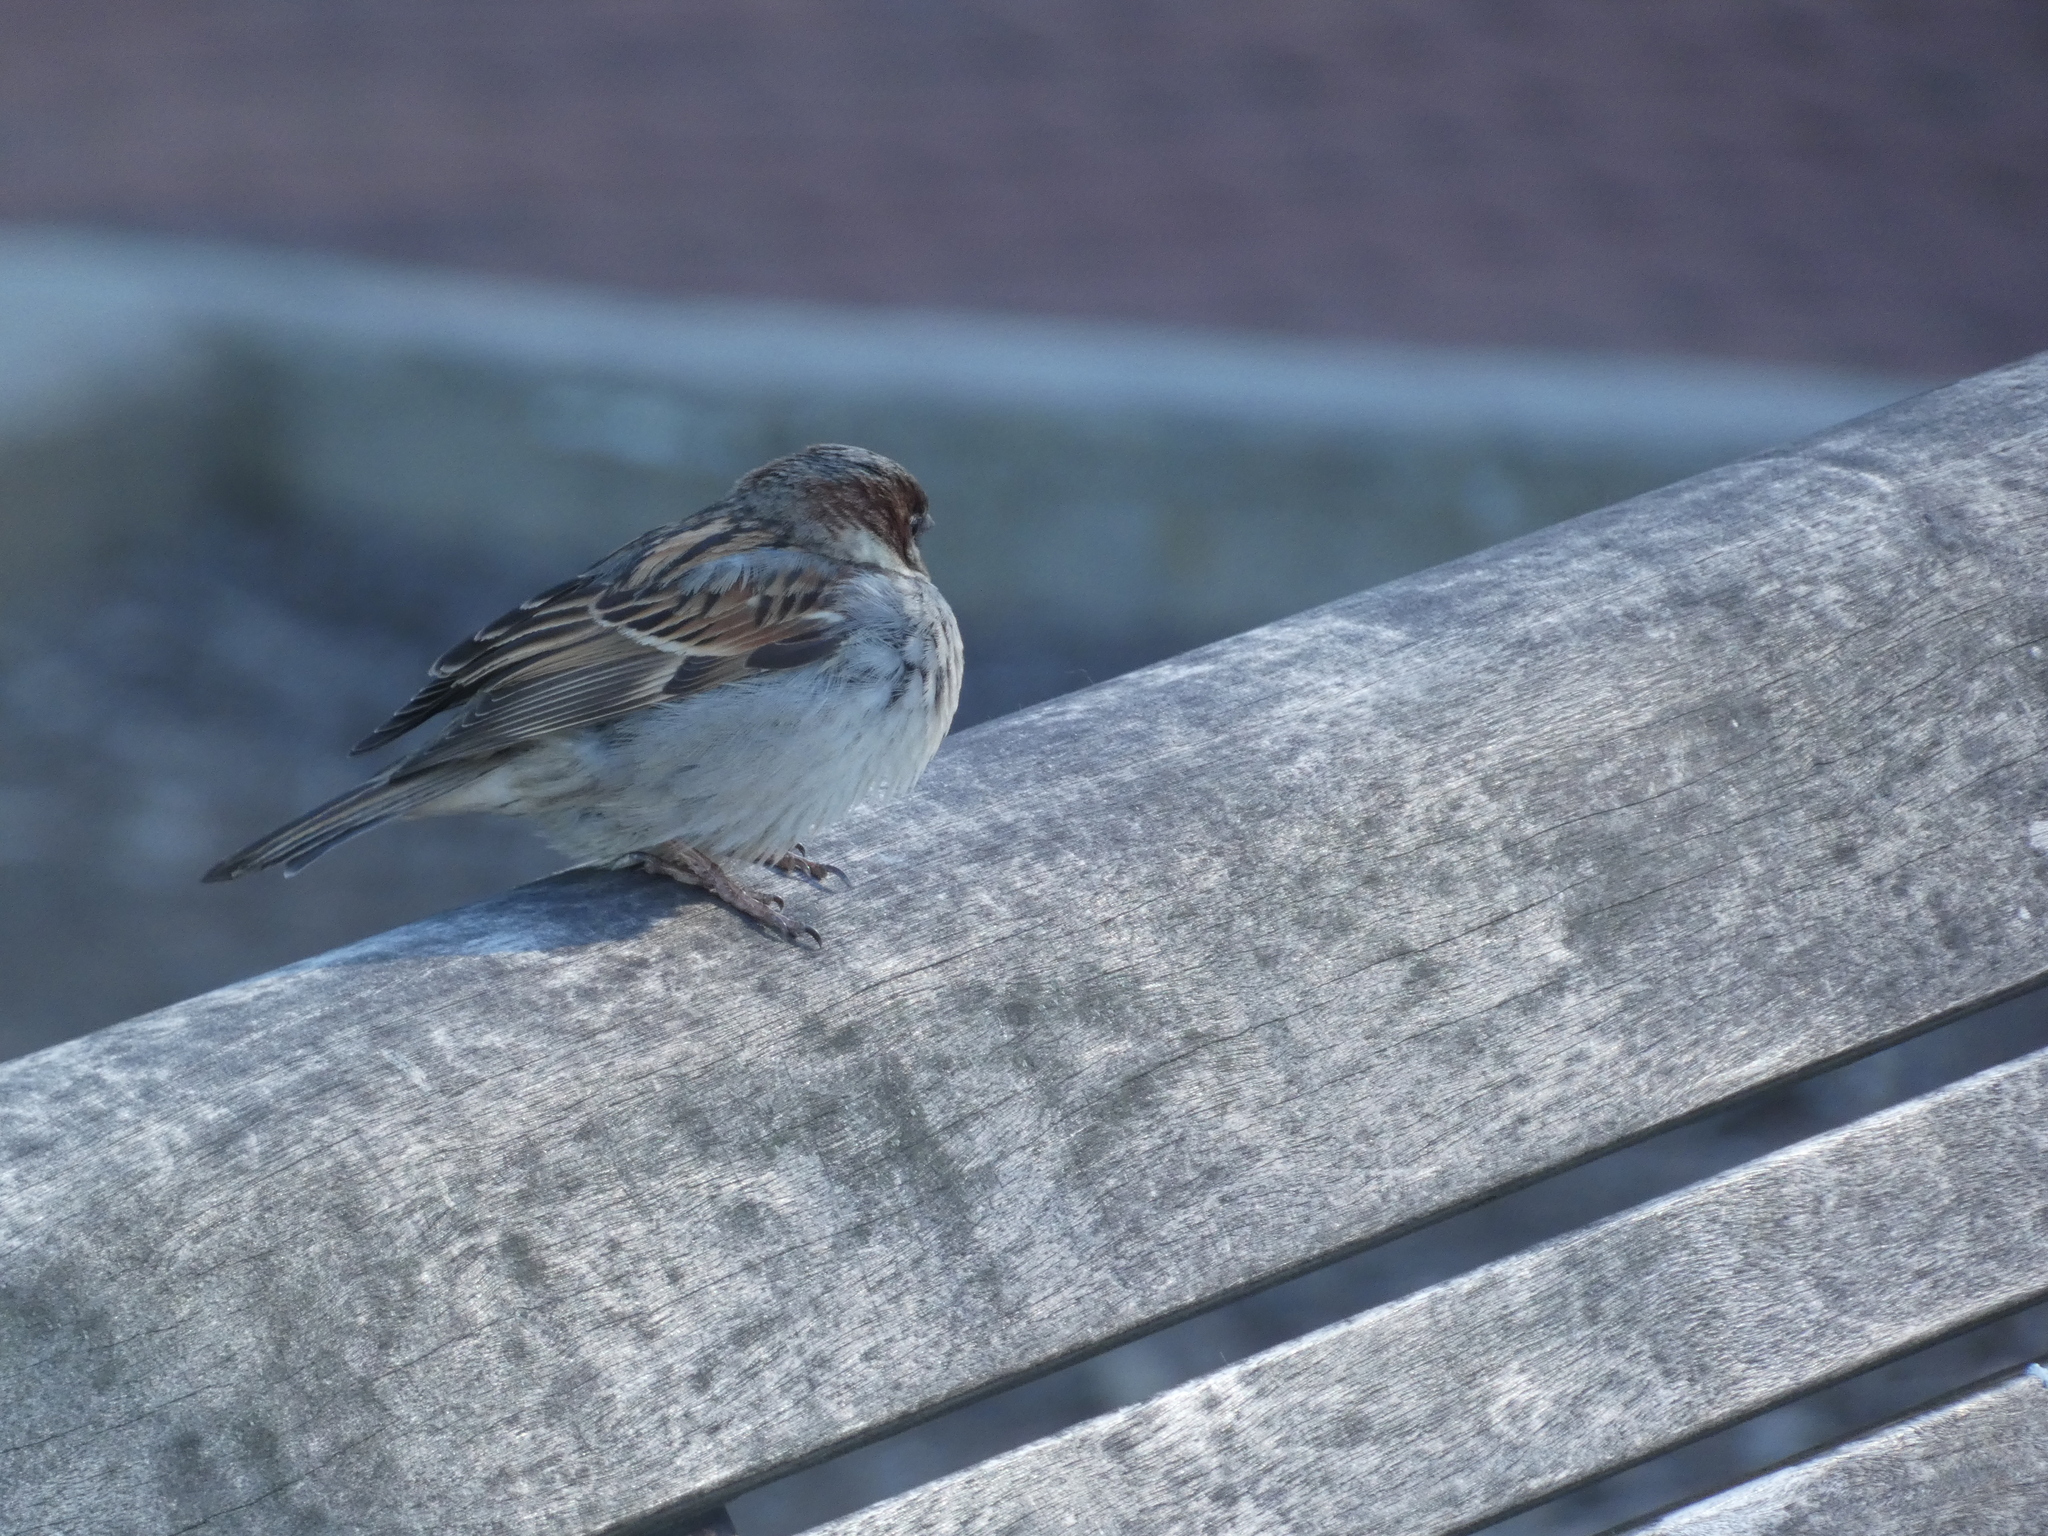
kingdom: Animalia
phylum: Chordata
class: Aves
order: Passeriformes
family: Passeridae
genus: Passer
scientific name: Passer domesticus
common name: House sparrow
